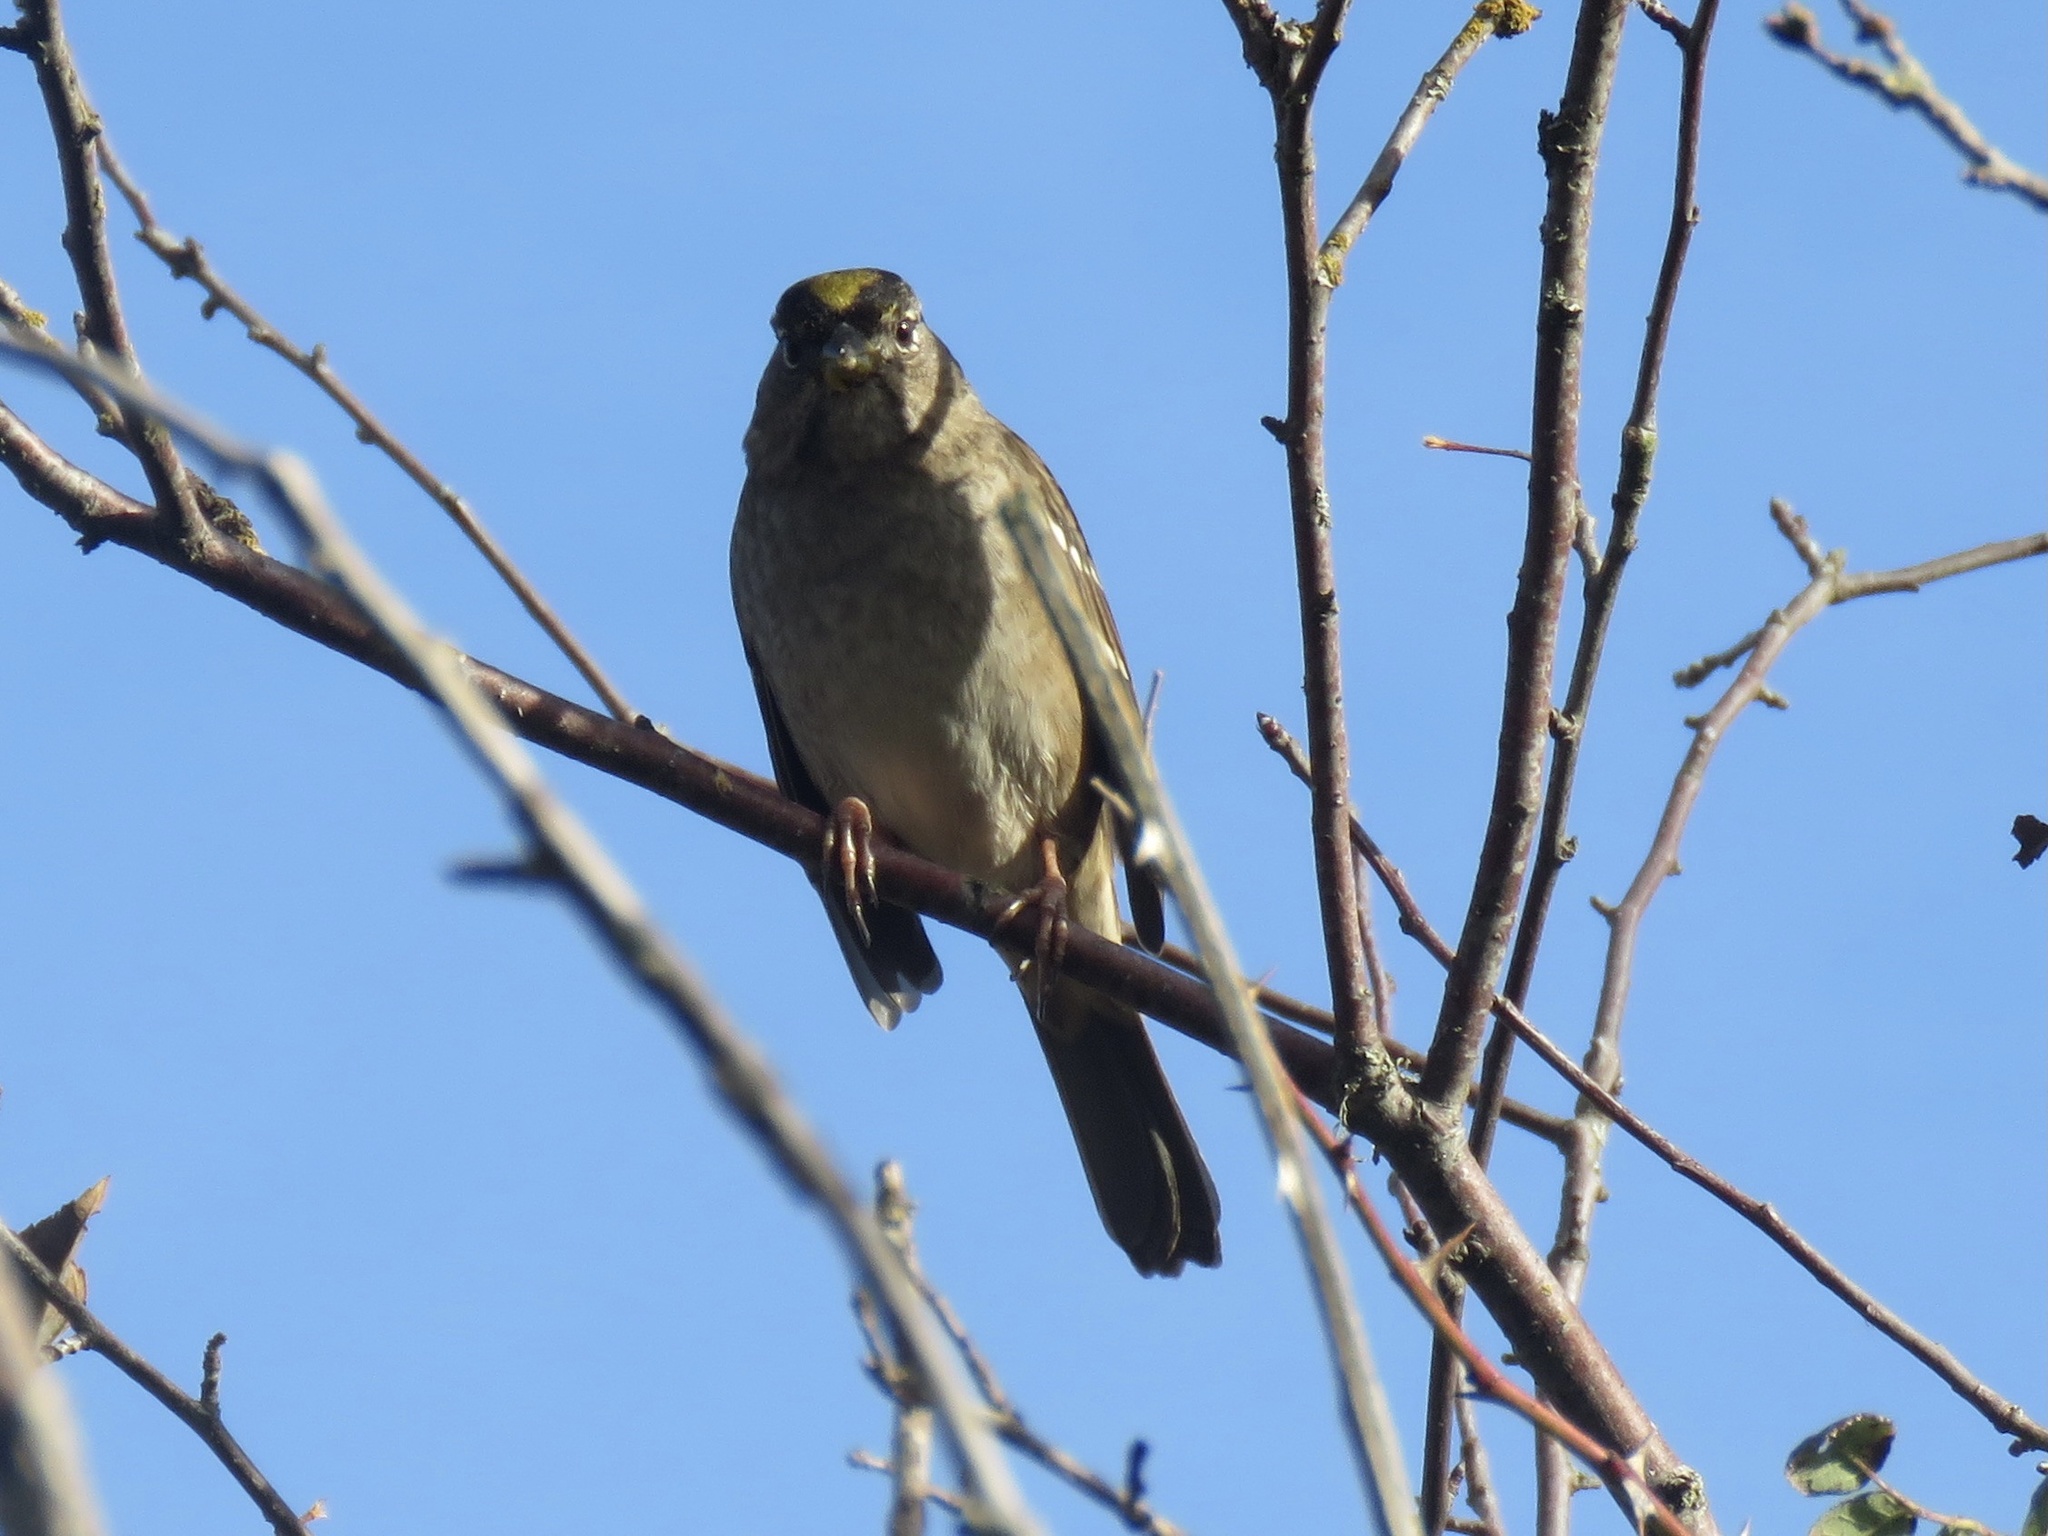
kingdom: Animalia
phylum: Chordata
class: Aves
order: Passeriformes
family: Passerellidae
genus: Zonotrichia
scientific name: Zonotrichia atricapilla
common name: Golden-crowned sparrow
